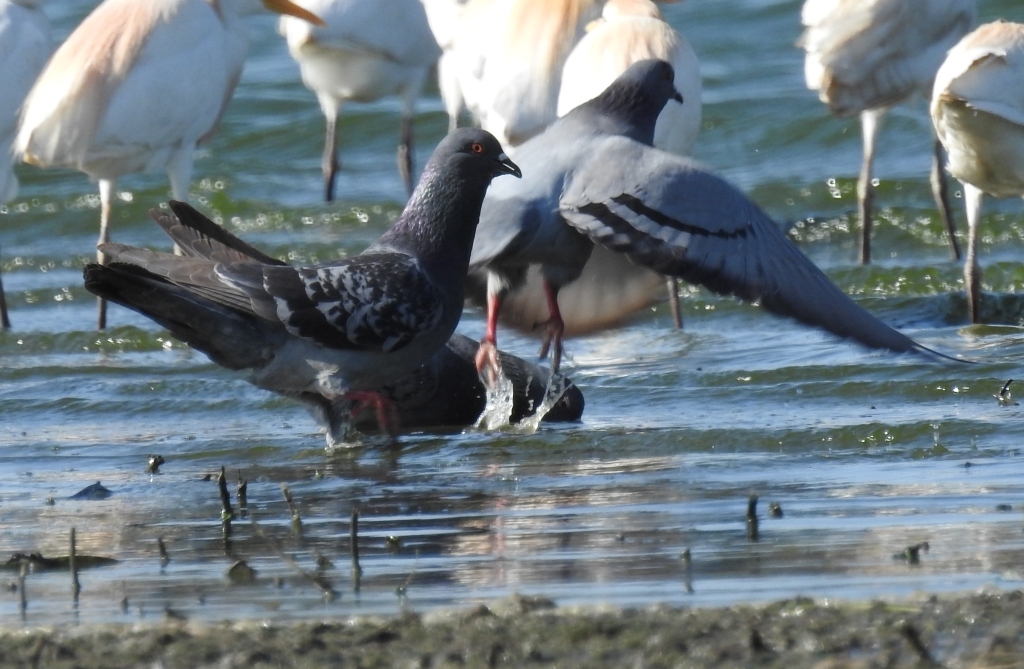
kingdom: Animalia
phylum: Chordata
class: Aves
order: Columbiformes
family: Columbidae
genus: Columba
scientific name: Columba livia
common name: Rock pigeon
